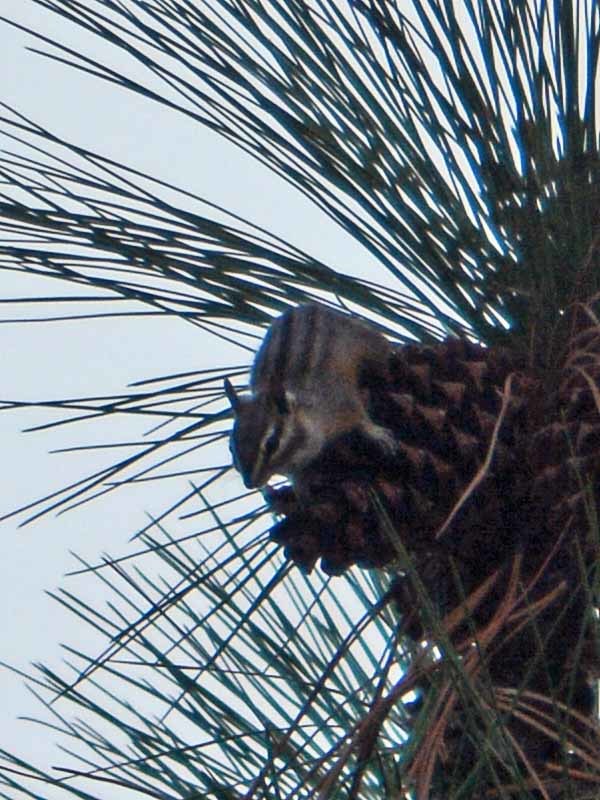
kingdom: Animalia
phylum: Chordata
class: Mammalia
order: Rodentia
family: Sciuridae
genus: Tamias
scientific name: Tamias dorsalis
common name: Cliff chipmunk
